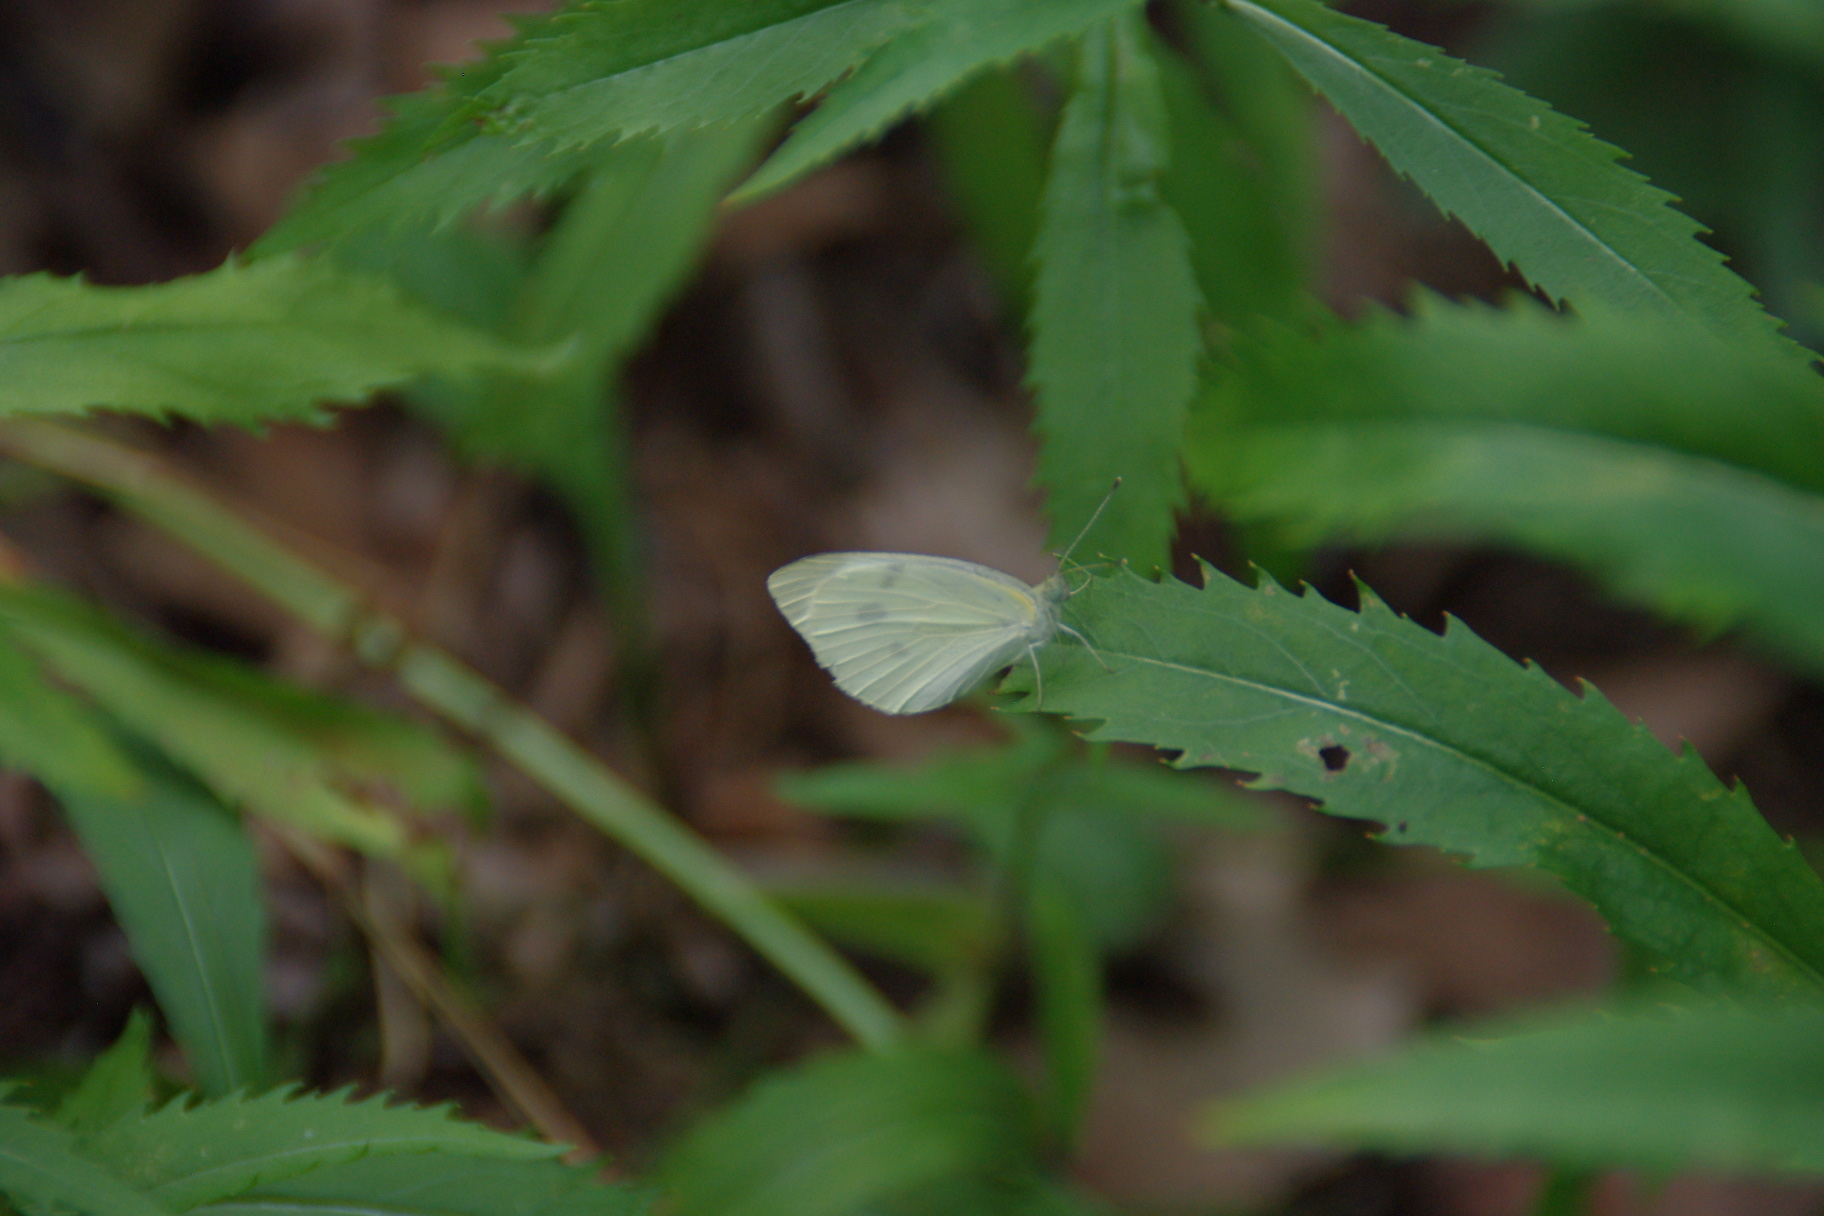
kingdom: Animalia
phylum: Arthropoda
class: Insecta
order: Lepidoptera
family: Pieridae
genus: Pieris
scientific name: Pieris rapae
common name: Small white
